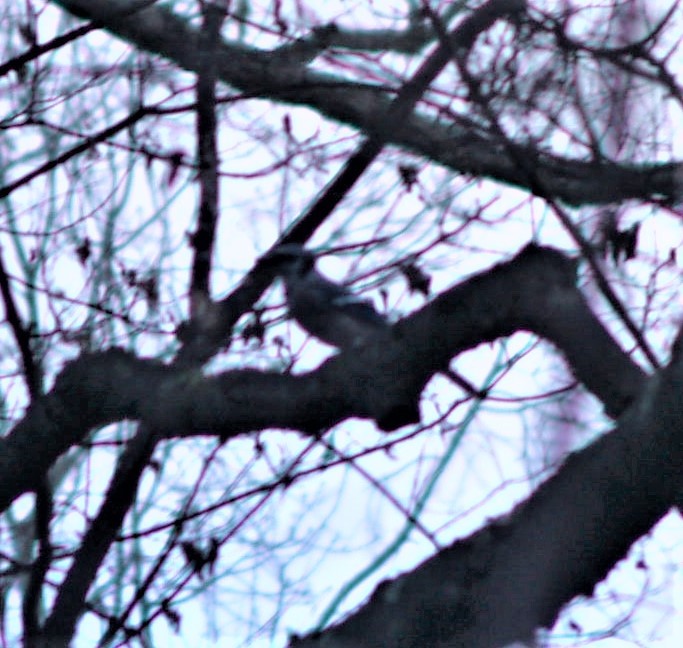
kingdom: Animalia
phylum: Chordata
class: Aves
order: Passeriformes
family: Corvidae
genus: Cyanocitta
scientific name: Cyanocitta cristata
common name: Blue jay
